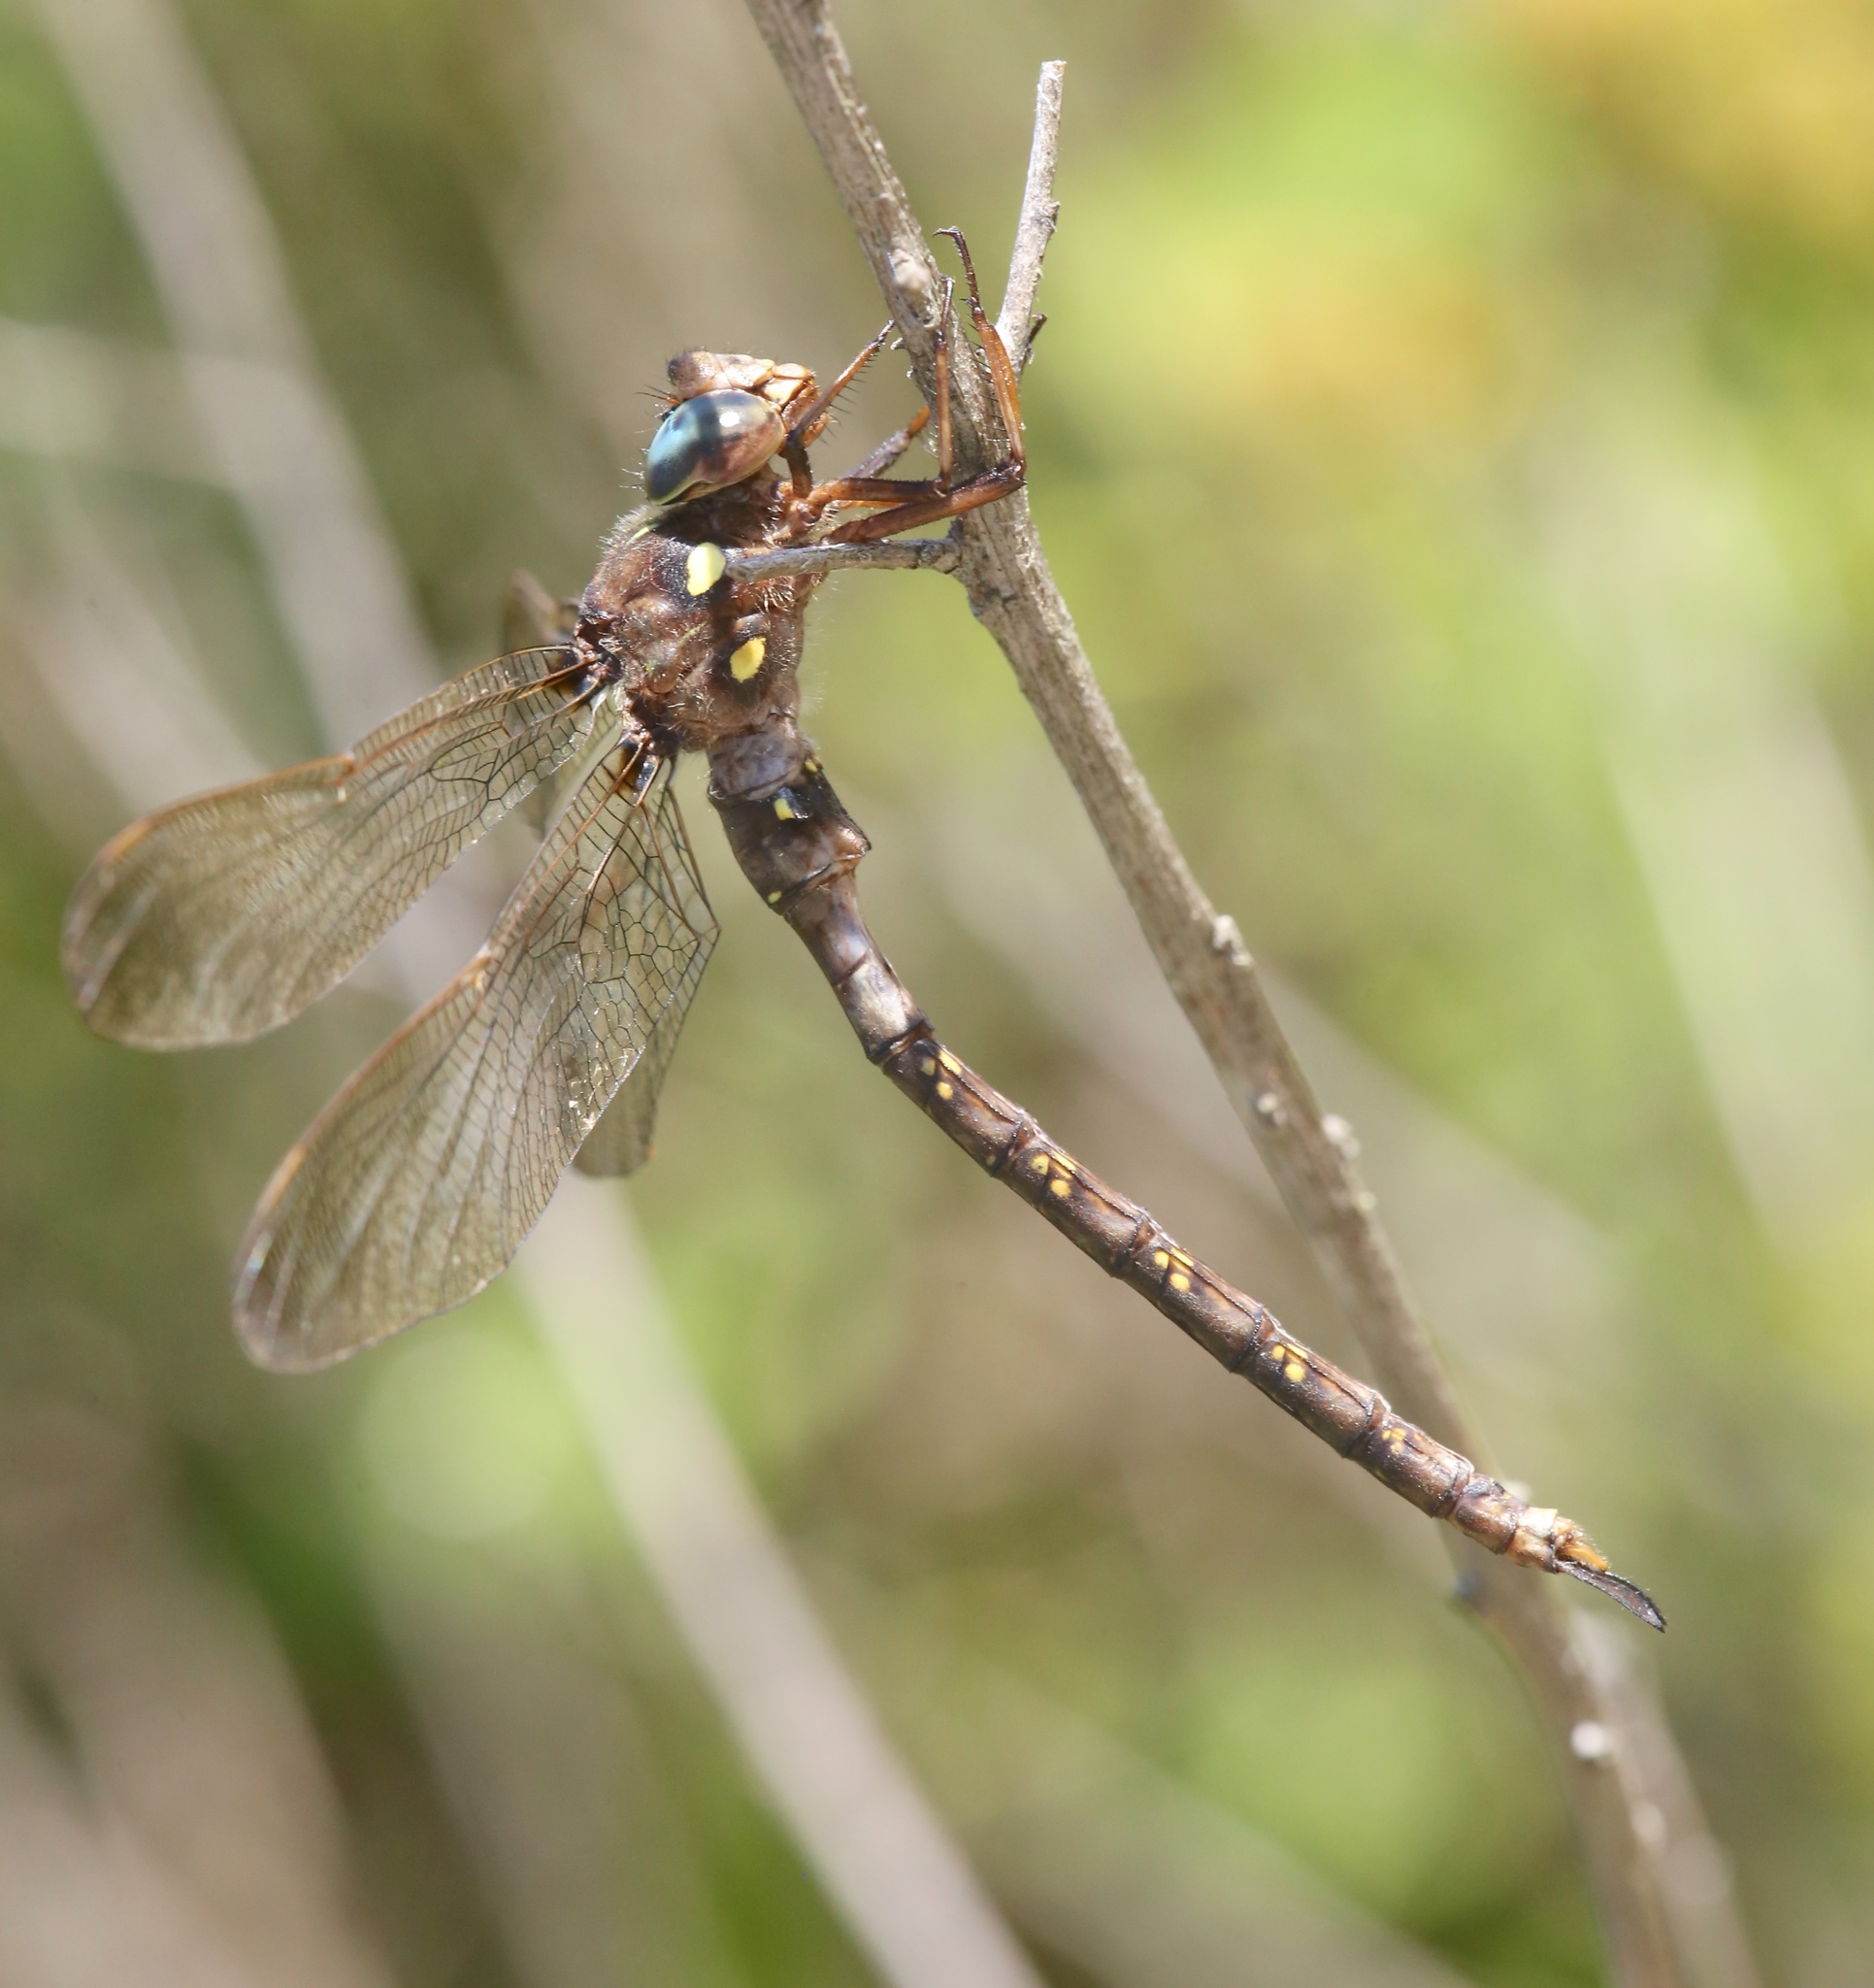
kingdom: Animalia
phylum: Arthropoda
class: Insecta
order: Odonata
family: Aeshnidae
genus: Boyeria
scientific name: Boyeria vinosa
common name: Fawn darner
